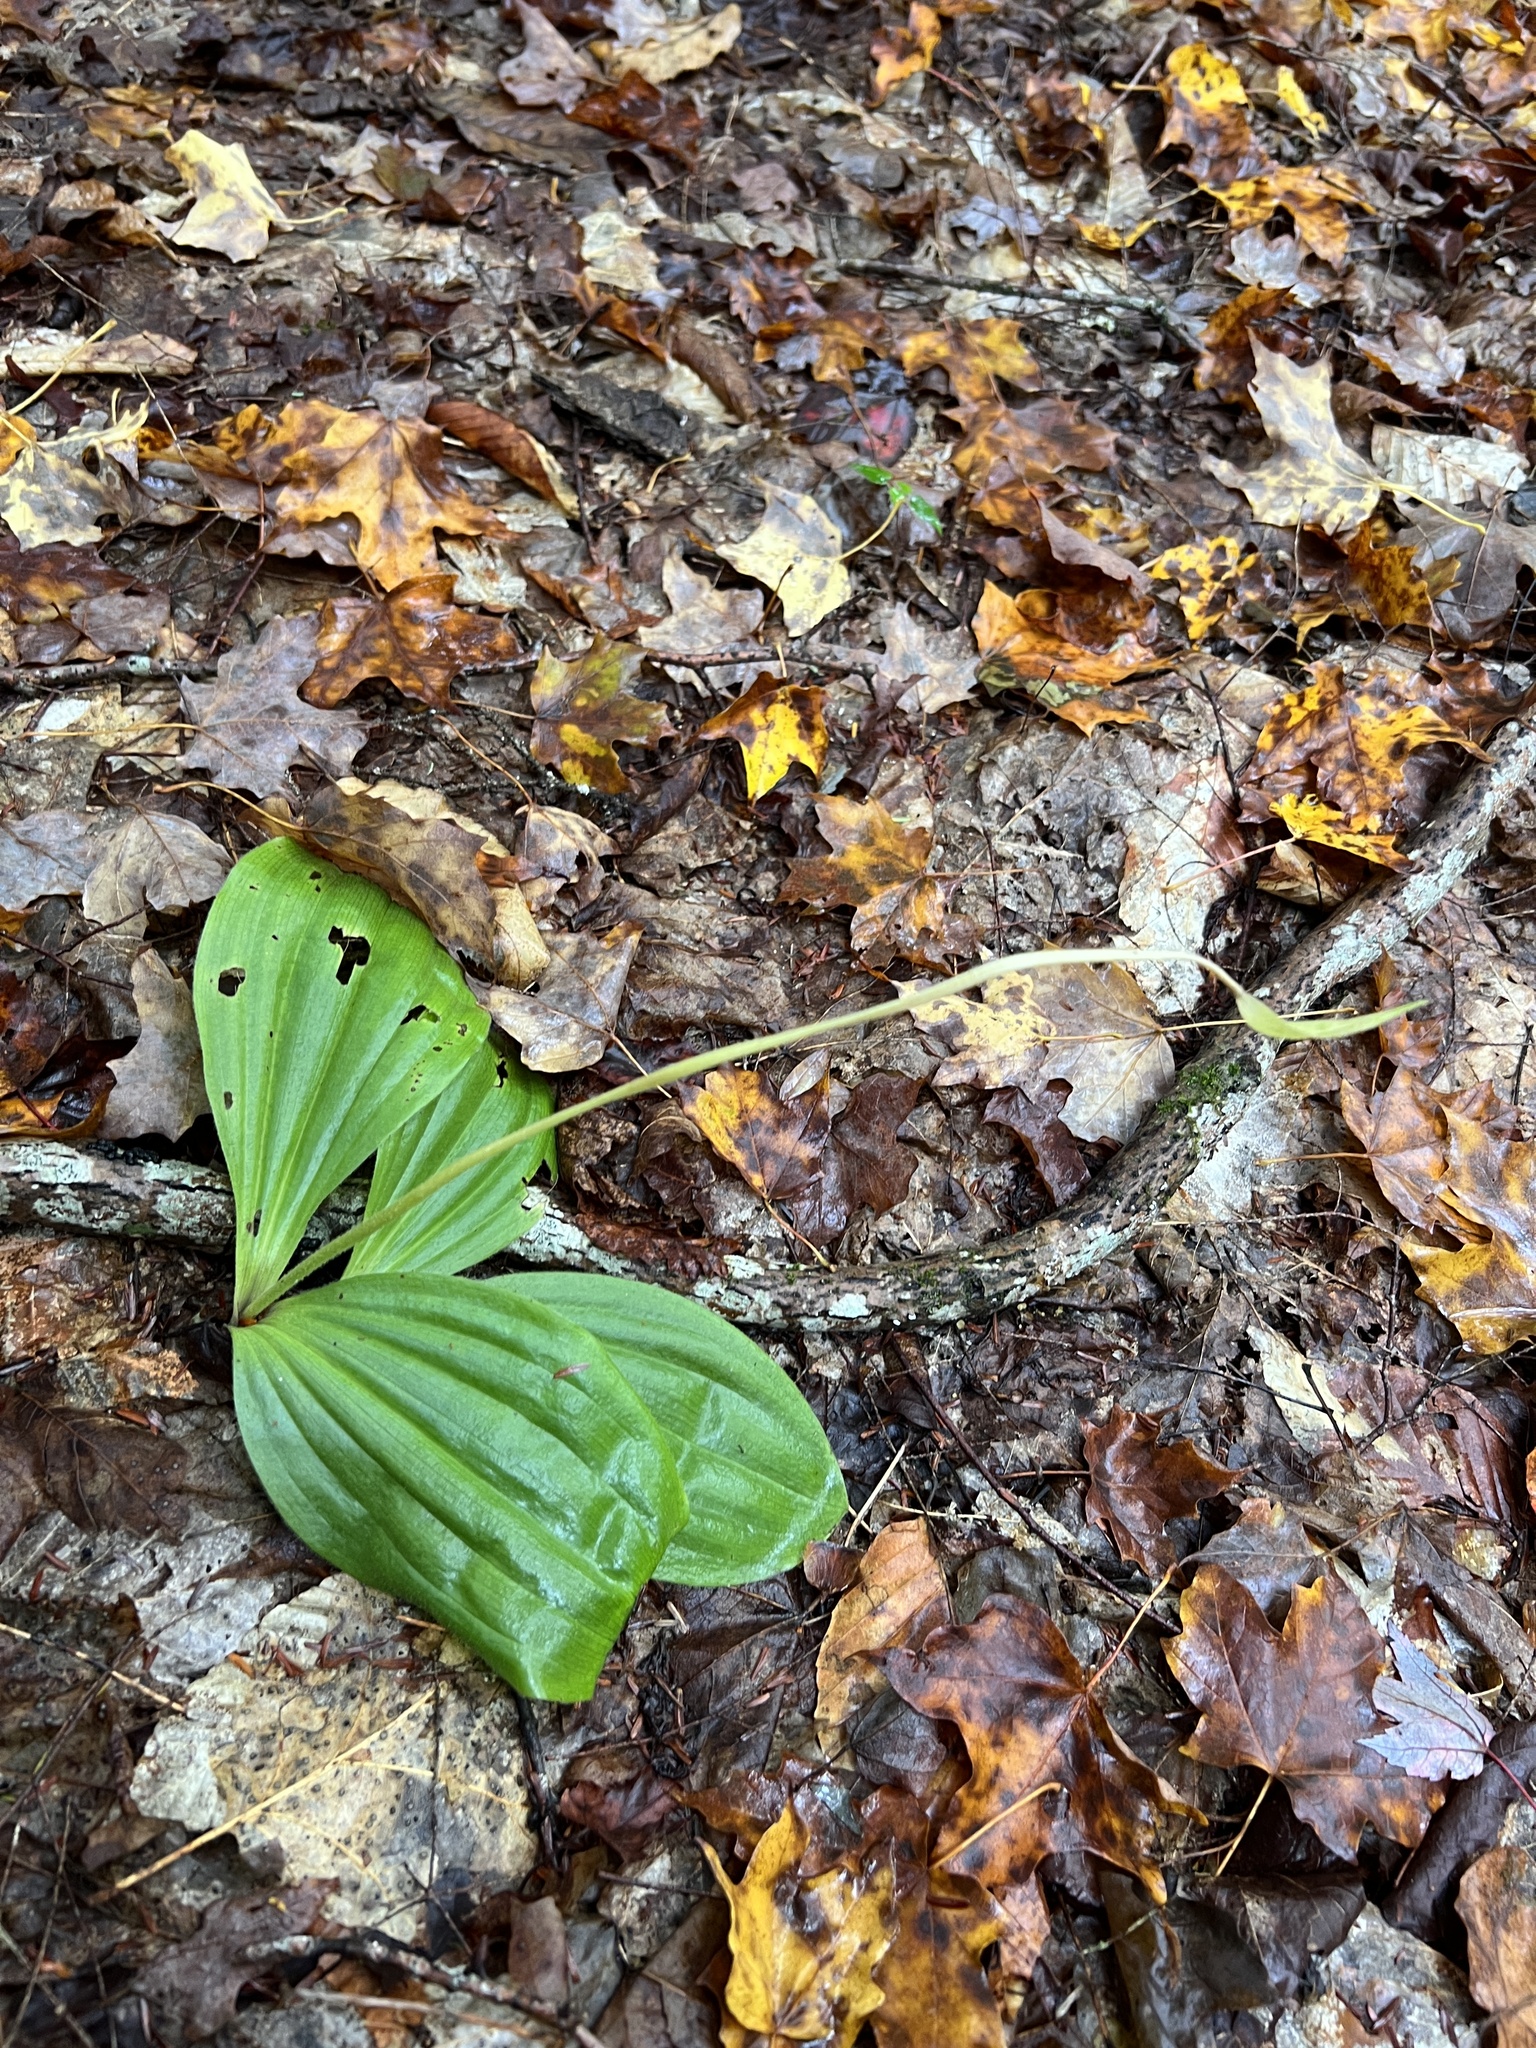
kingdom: Plantae
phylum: Tracheophyta
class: Liliopsida
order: Asparagales
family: Orchidaceae
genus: Cypripedium
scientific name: Cypripedium acaule
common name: Pink lady's-slipper
